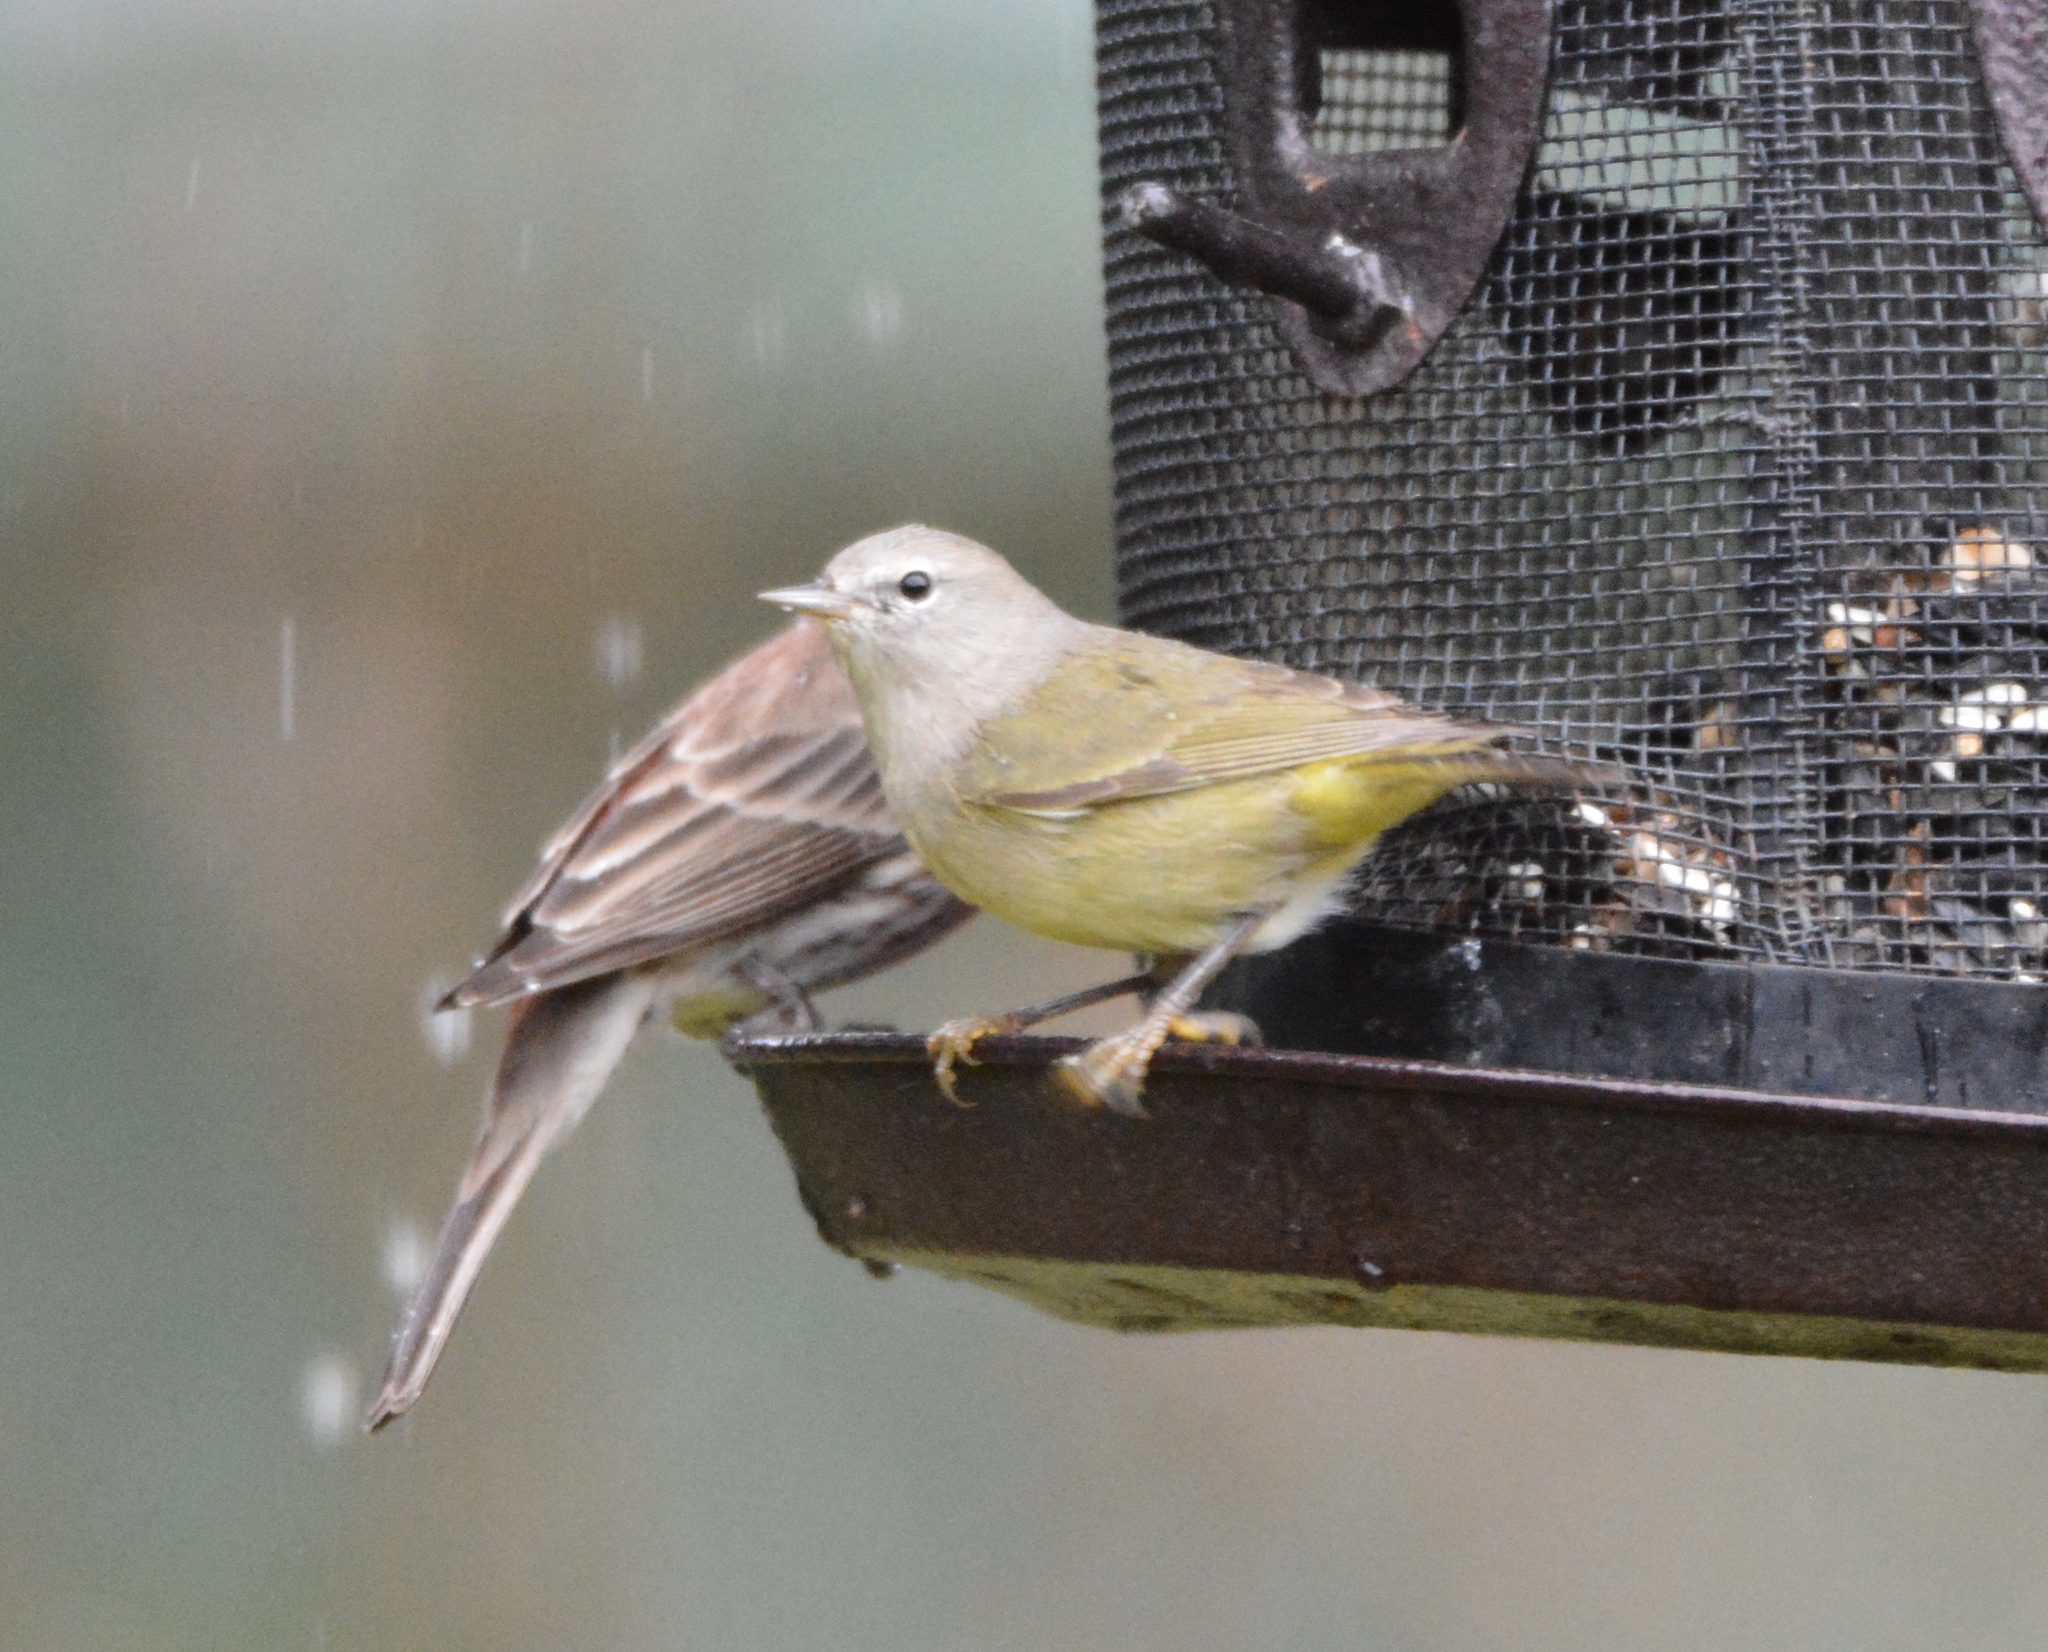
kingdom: Animalia
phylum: Chordata
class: Aves
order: Passeriformes
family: Parulidae
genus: Leiothlypis
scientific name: Leiothlypis celata
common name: Orange-crowned warbler
